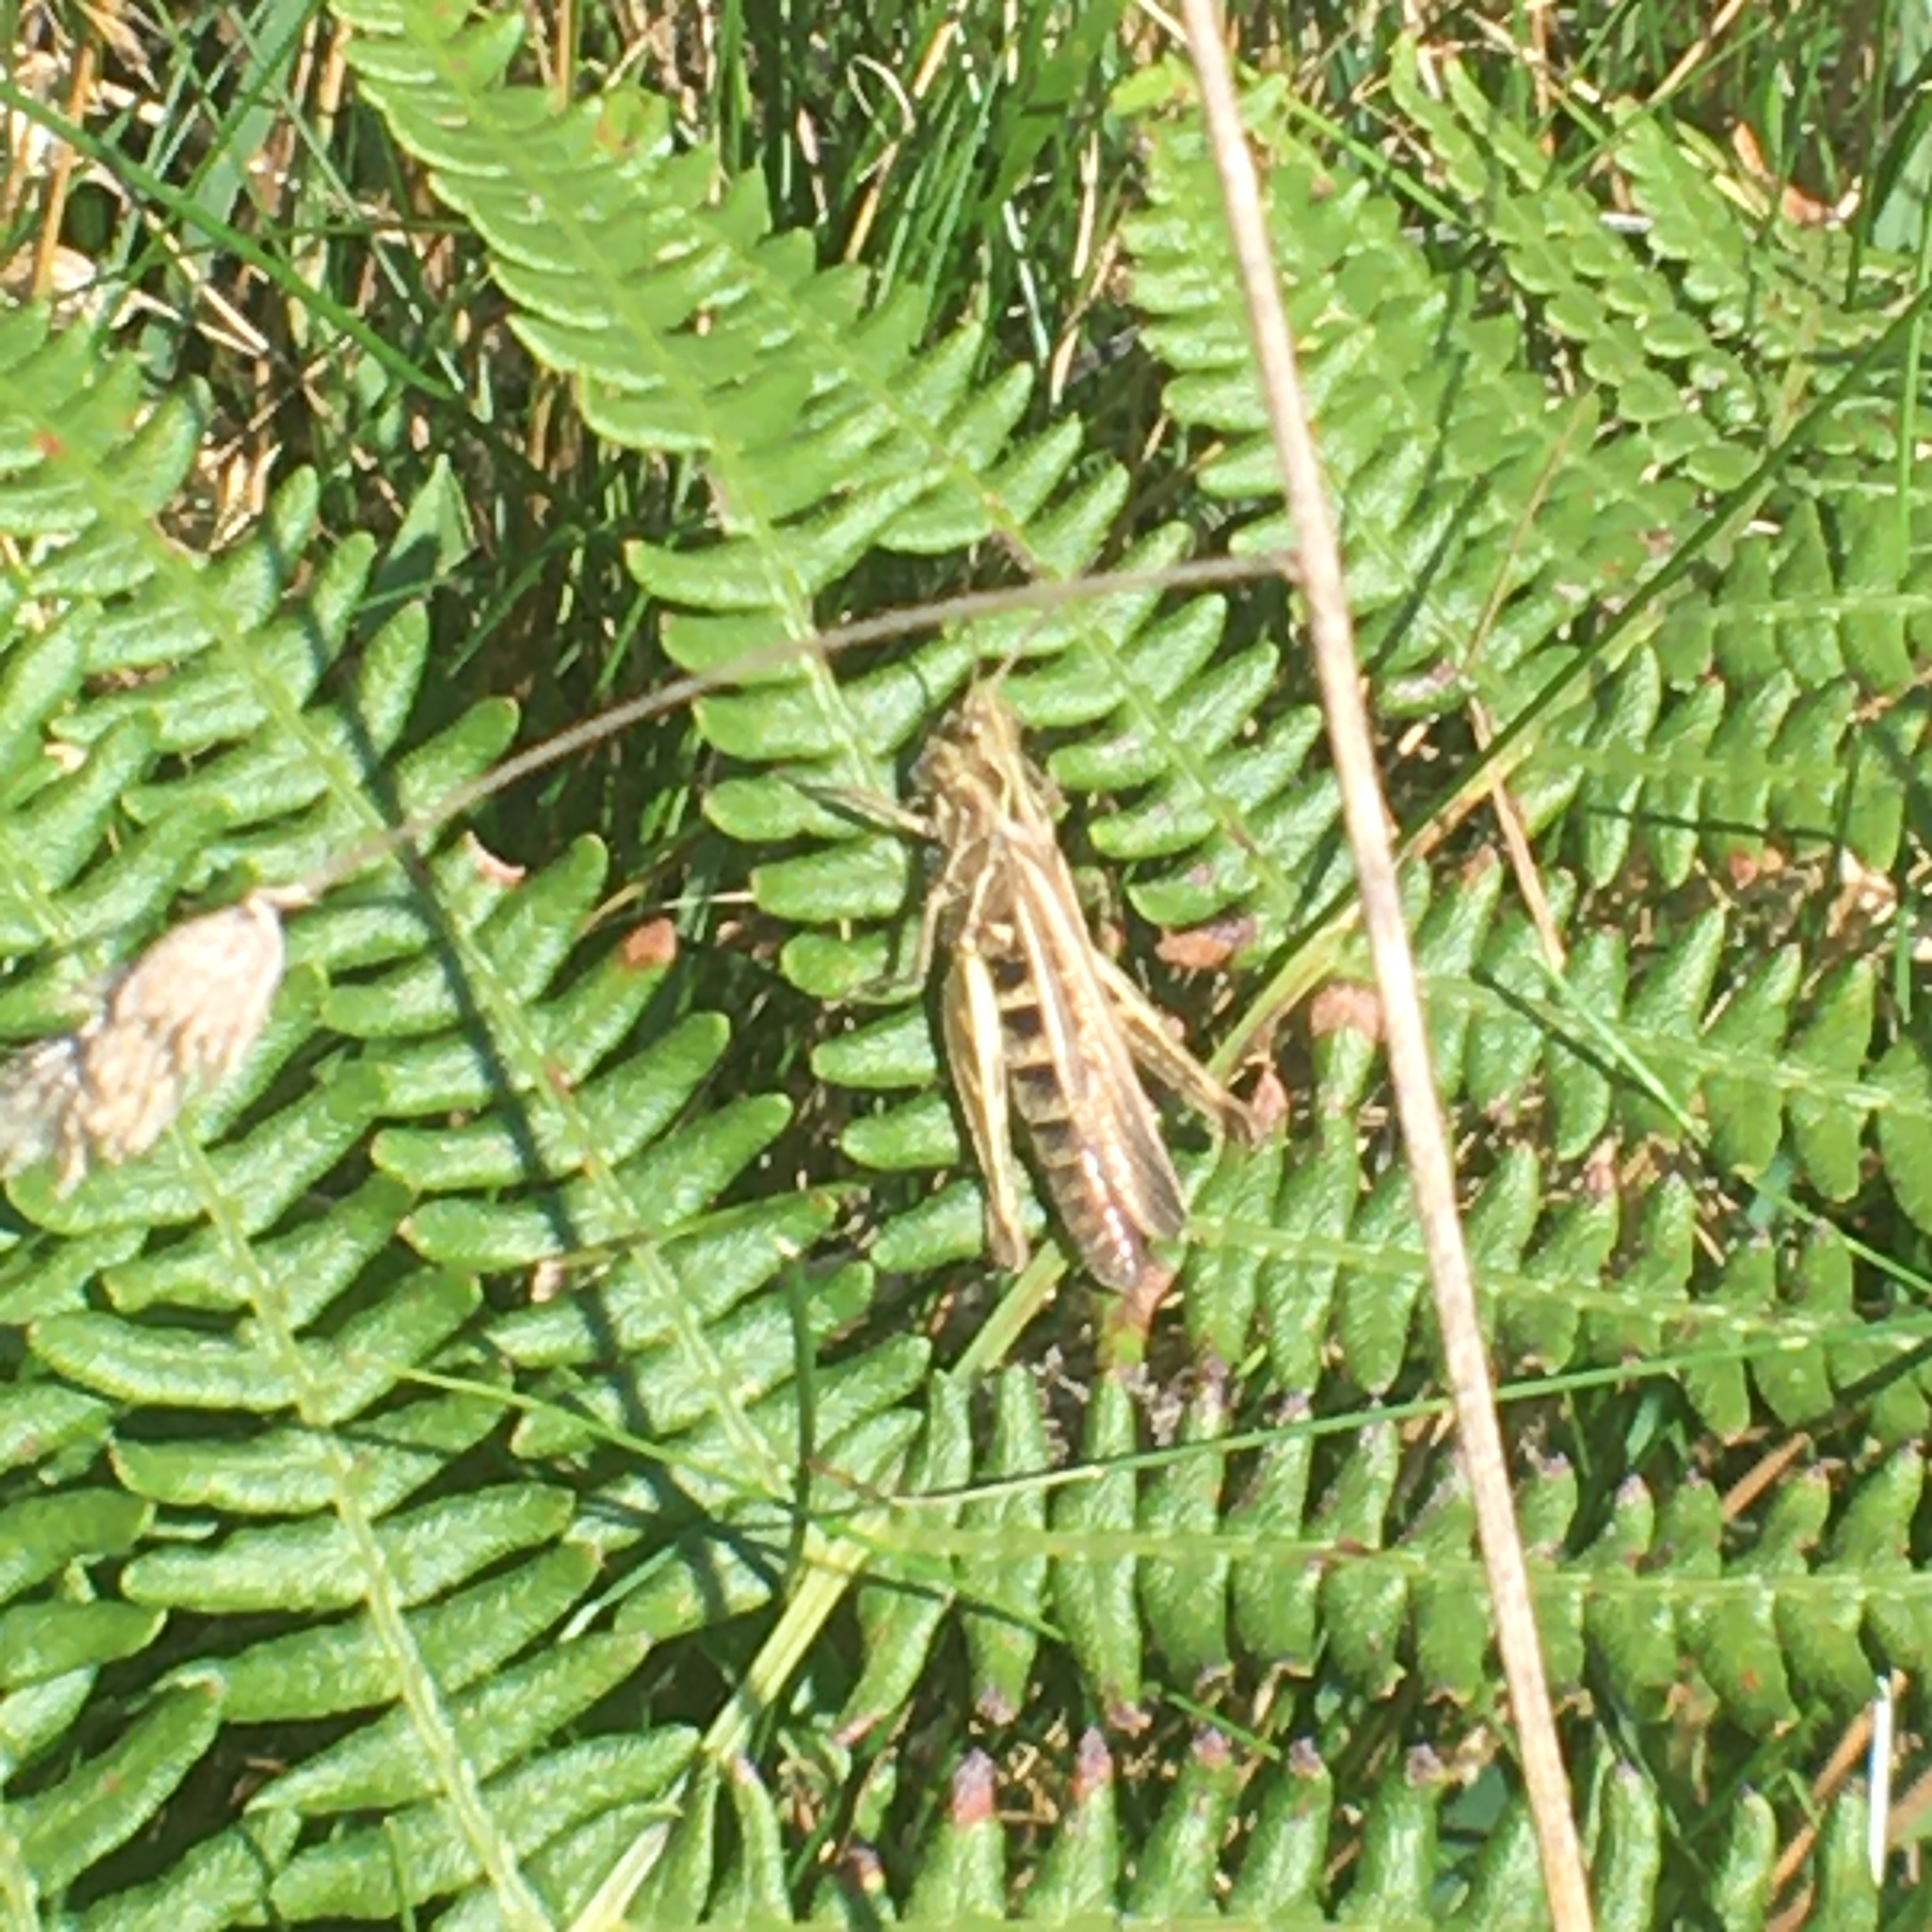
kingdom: Animalia
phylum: Arthropoda
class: Insecta
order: Orthoptera
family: Acrididae
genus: Chorthippus
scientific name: Chorthippus brunneus
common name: Field grasshopper
